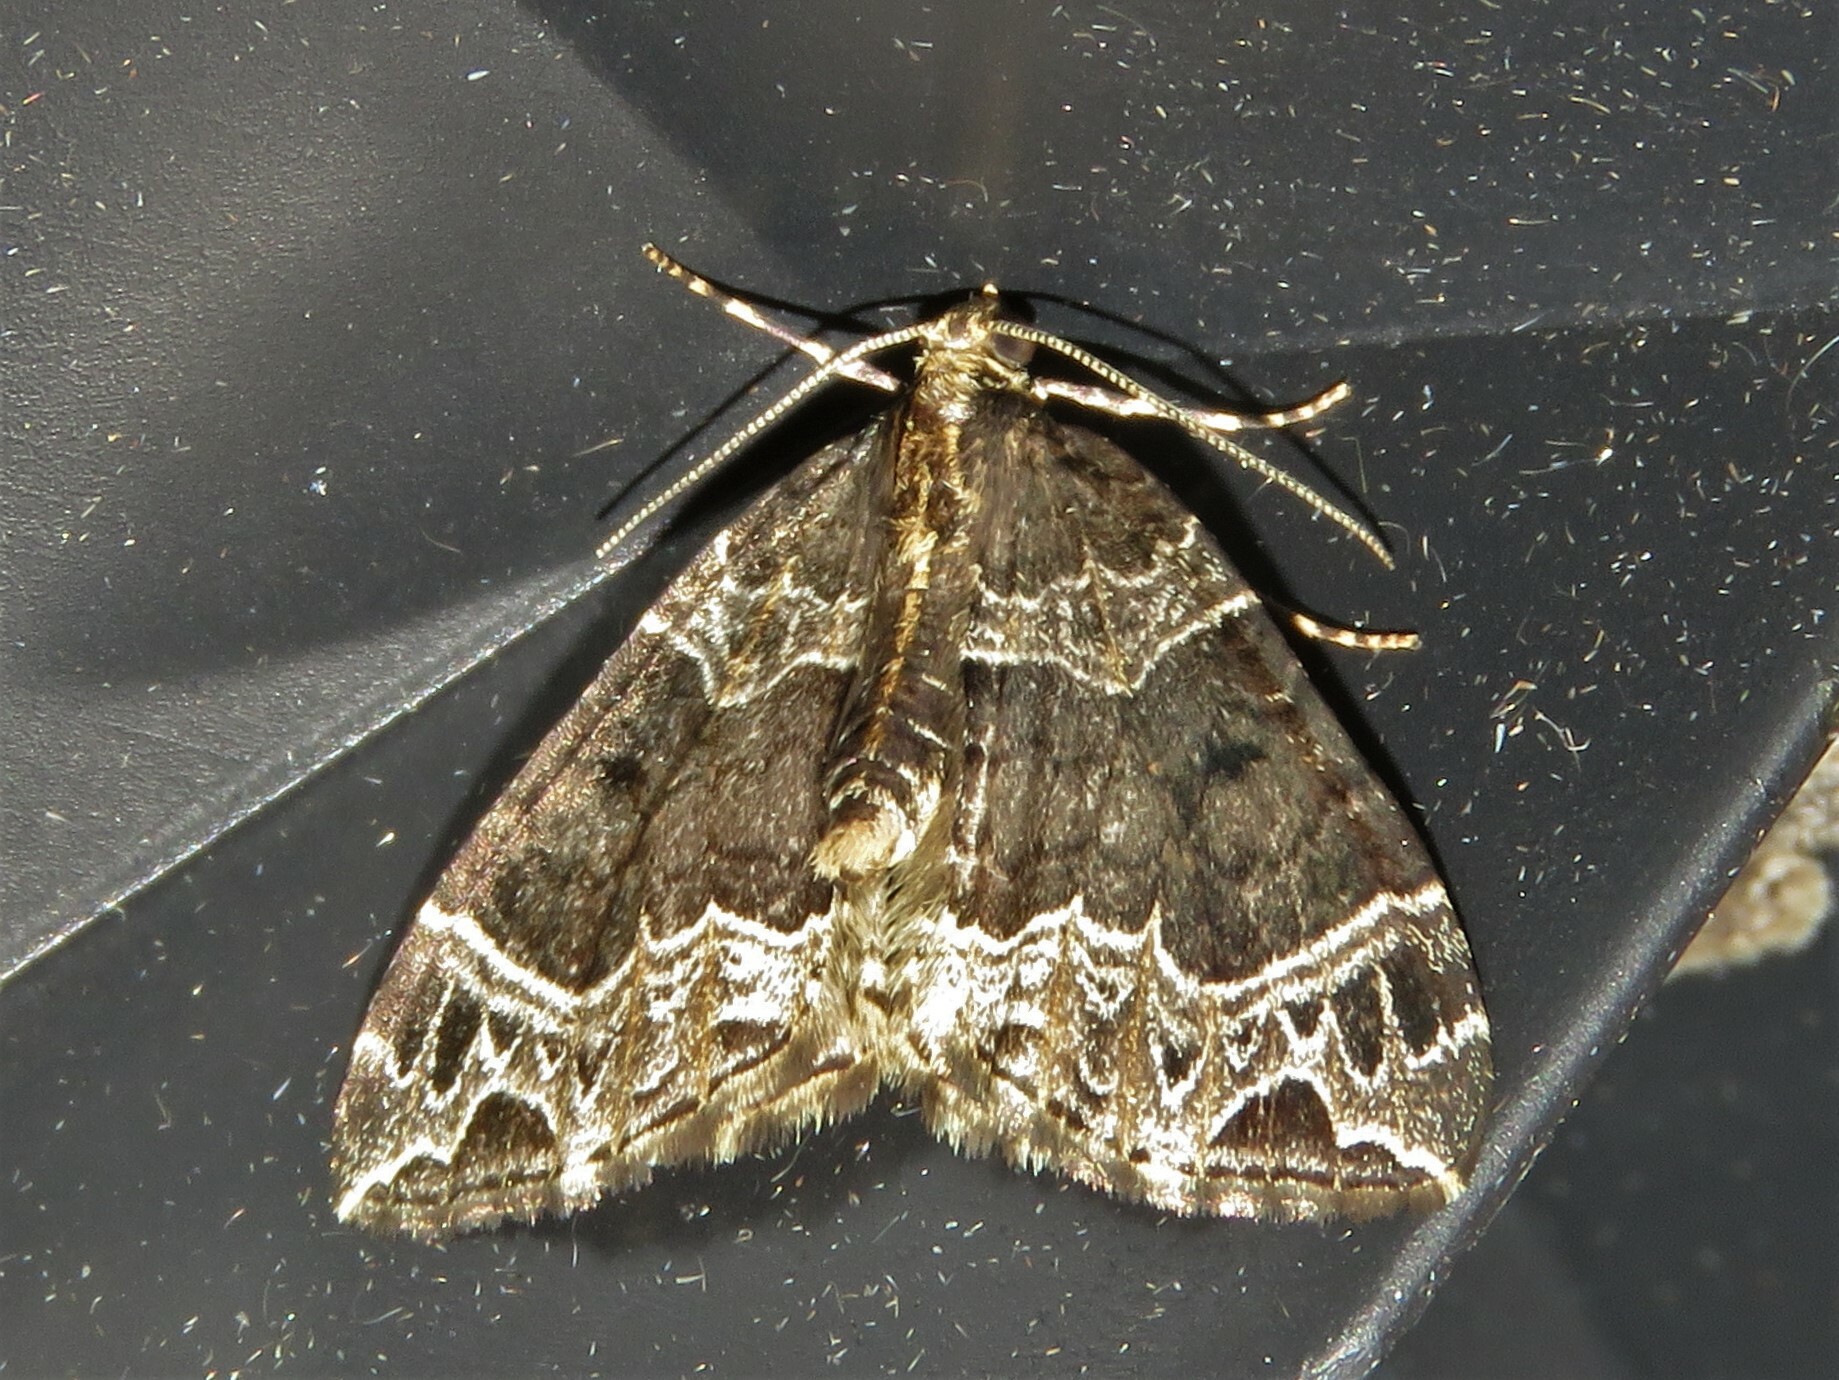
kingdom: Animalia
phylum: Arthropoda
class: Insecta
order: Lepidoptera
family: Geometridae
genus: Ecliptopera
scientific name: Ecliptopera silaceata
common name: Small phoenix
